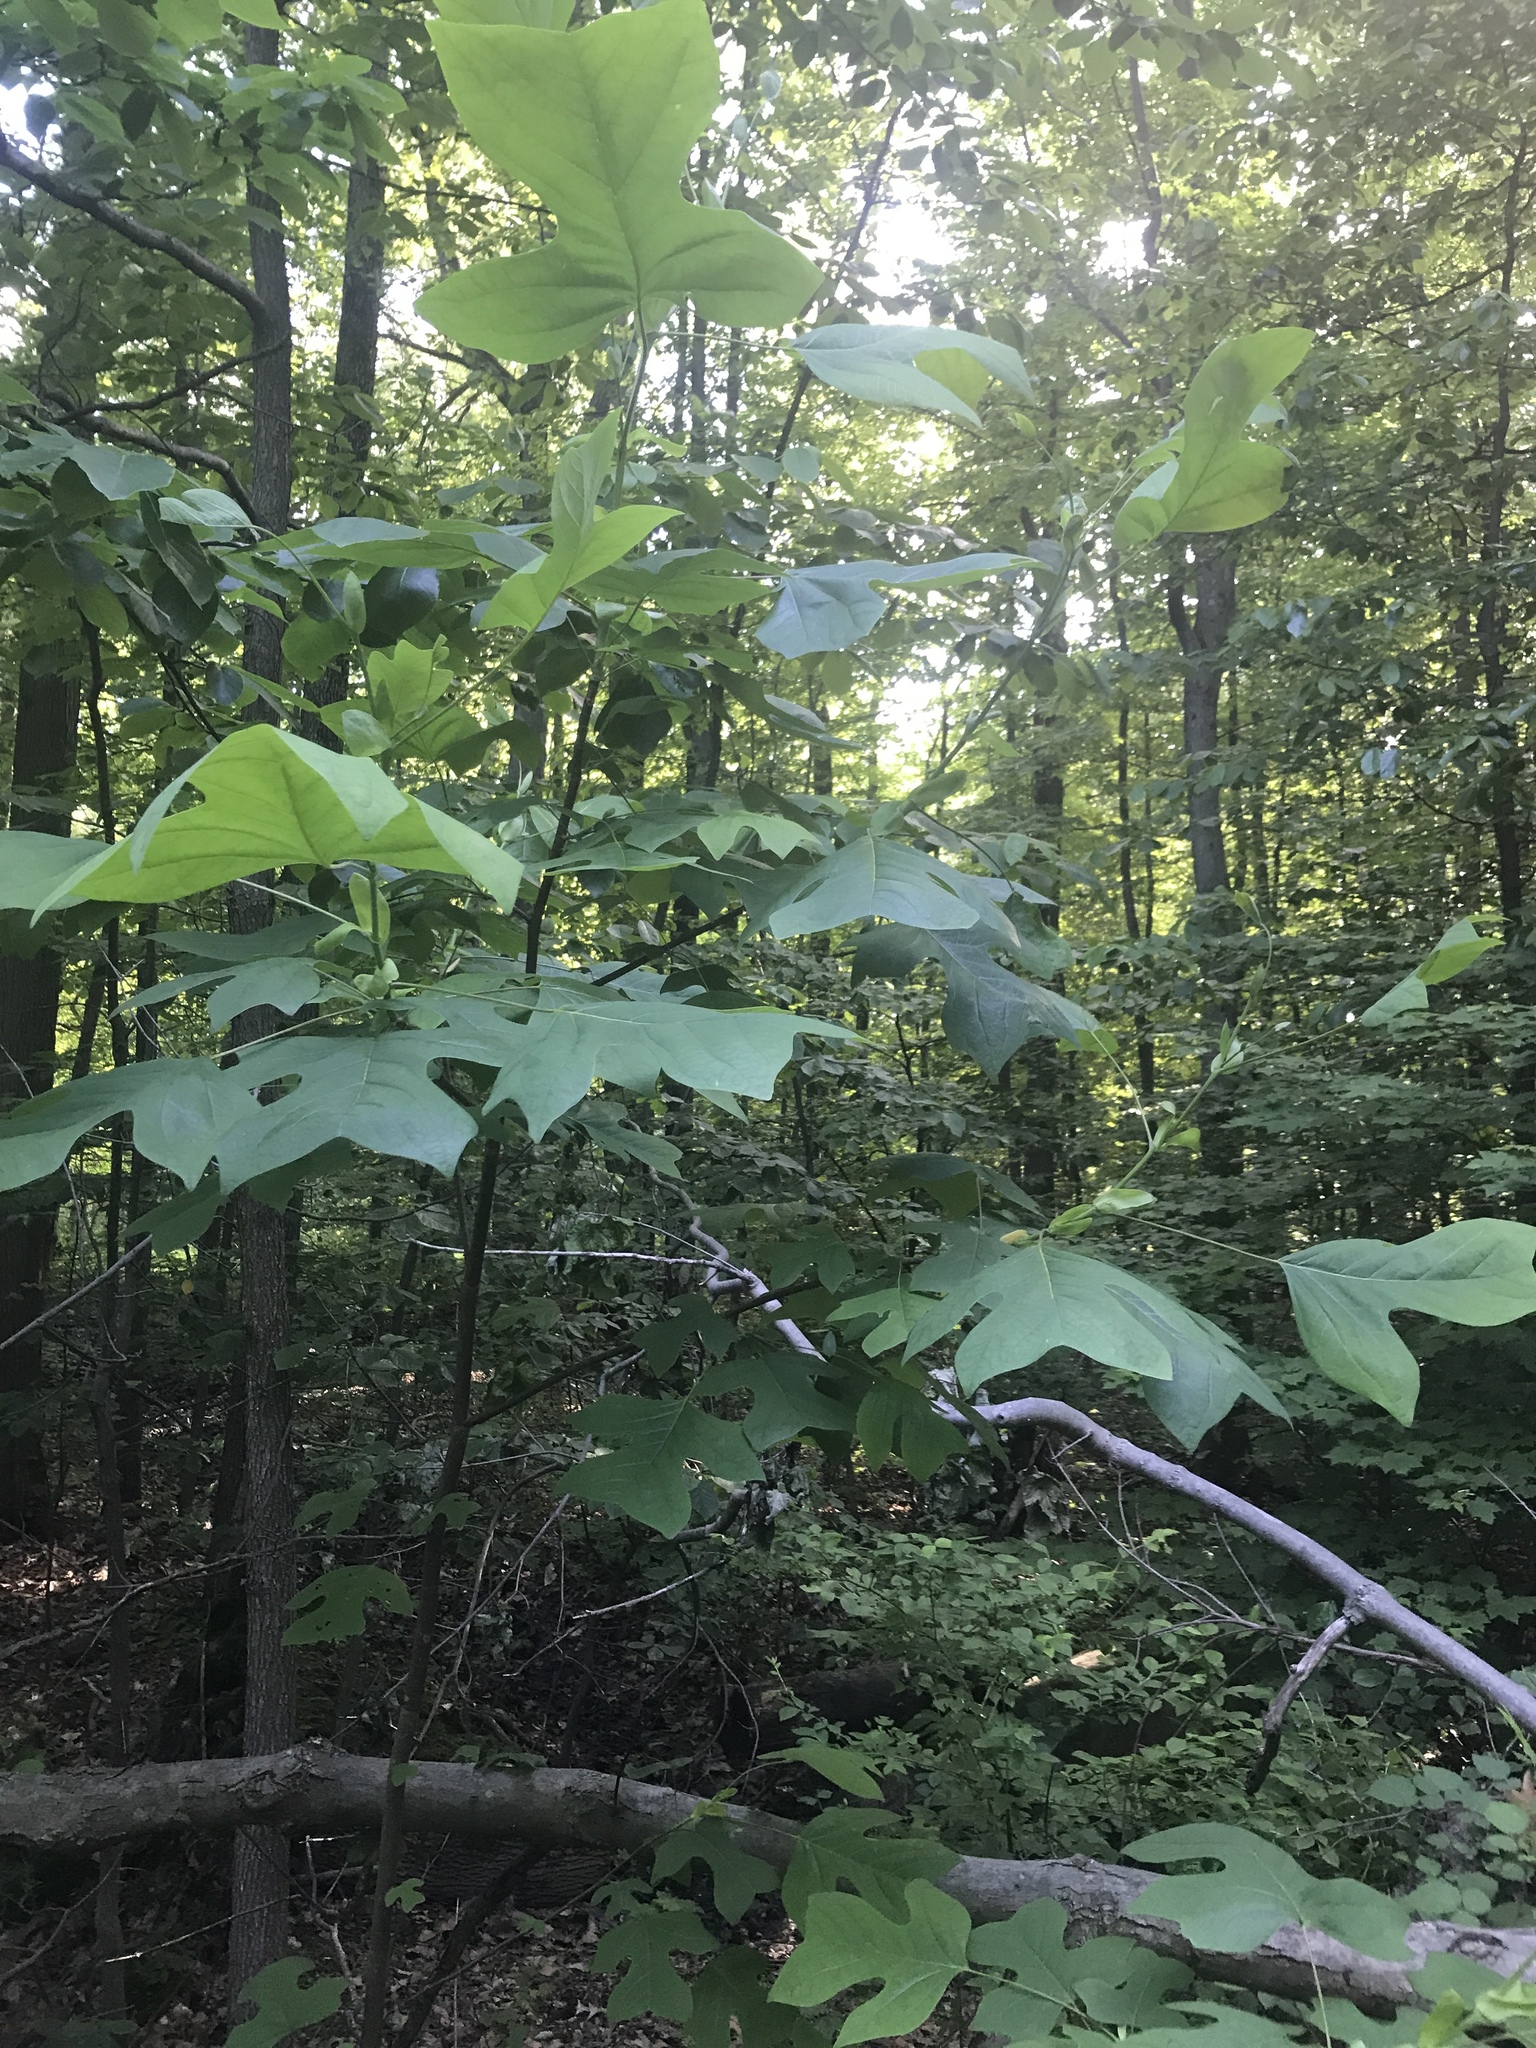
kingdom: Plantae
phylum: Tracheophyta
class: Magnoliopsida
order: Magnoliales
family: Magnoliaceae
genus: Liriodendron
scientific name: Liriodendron tulipifera
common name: Tulip tree
